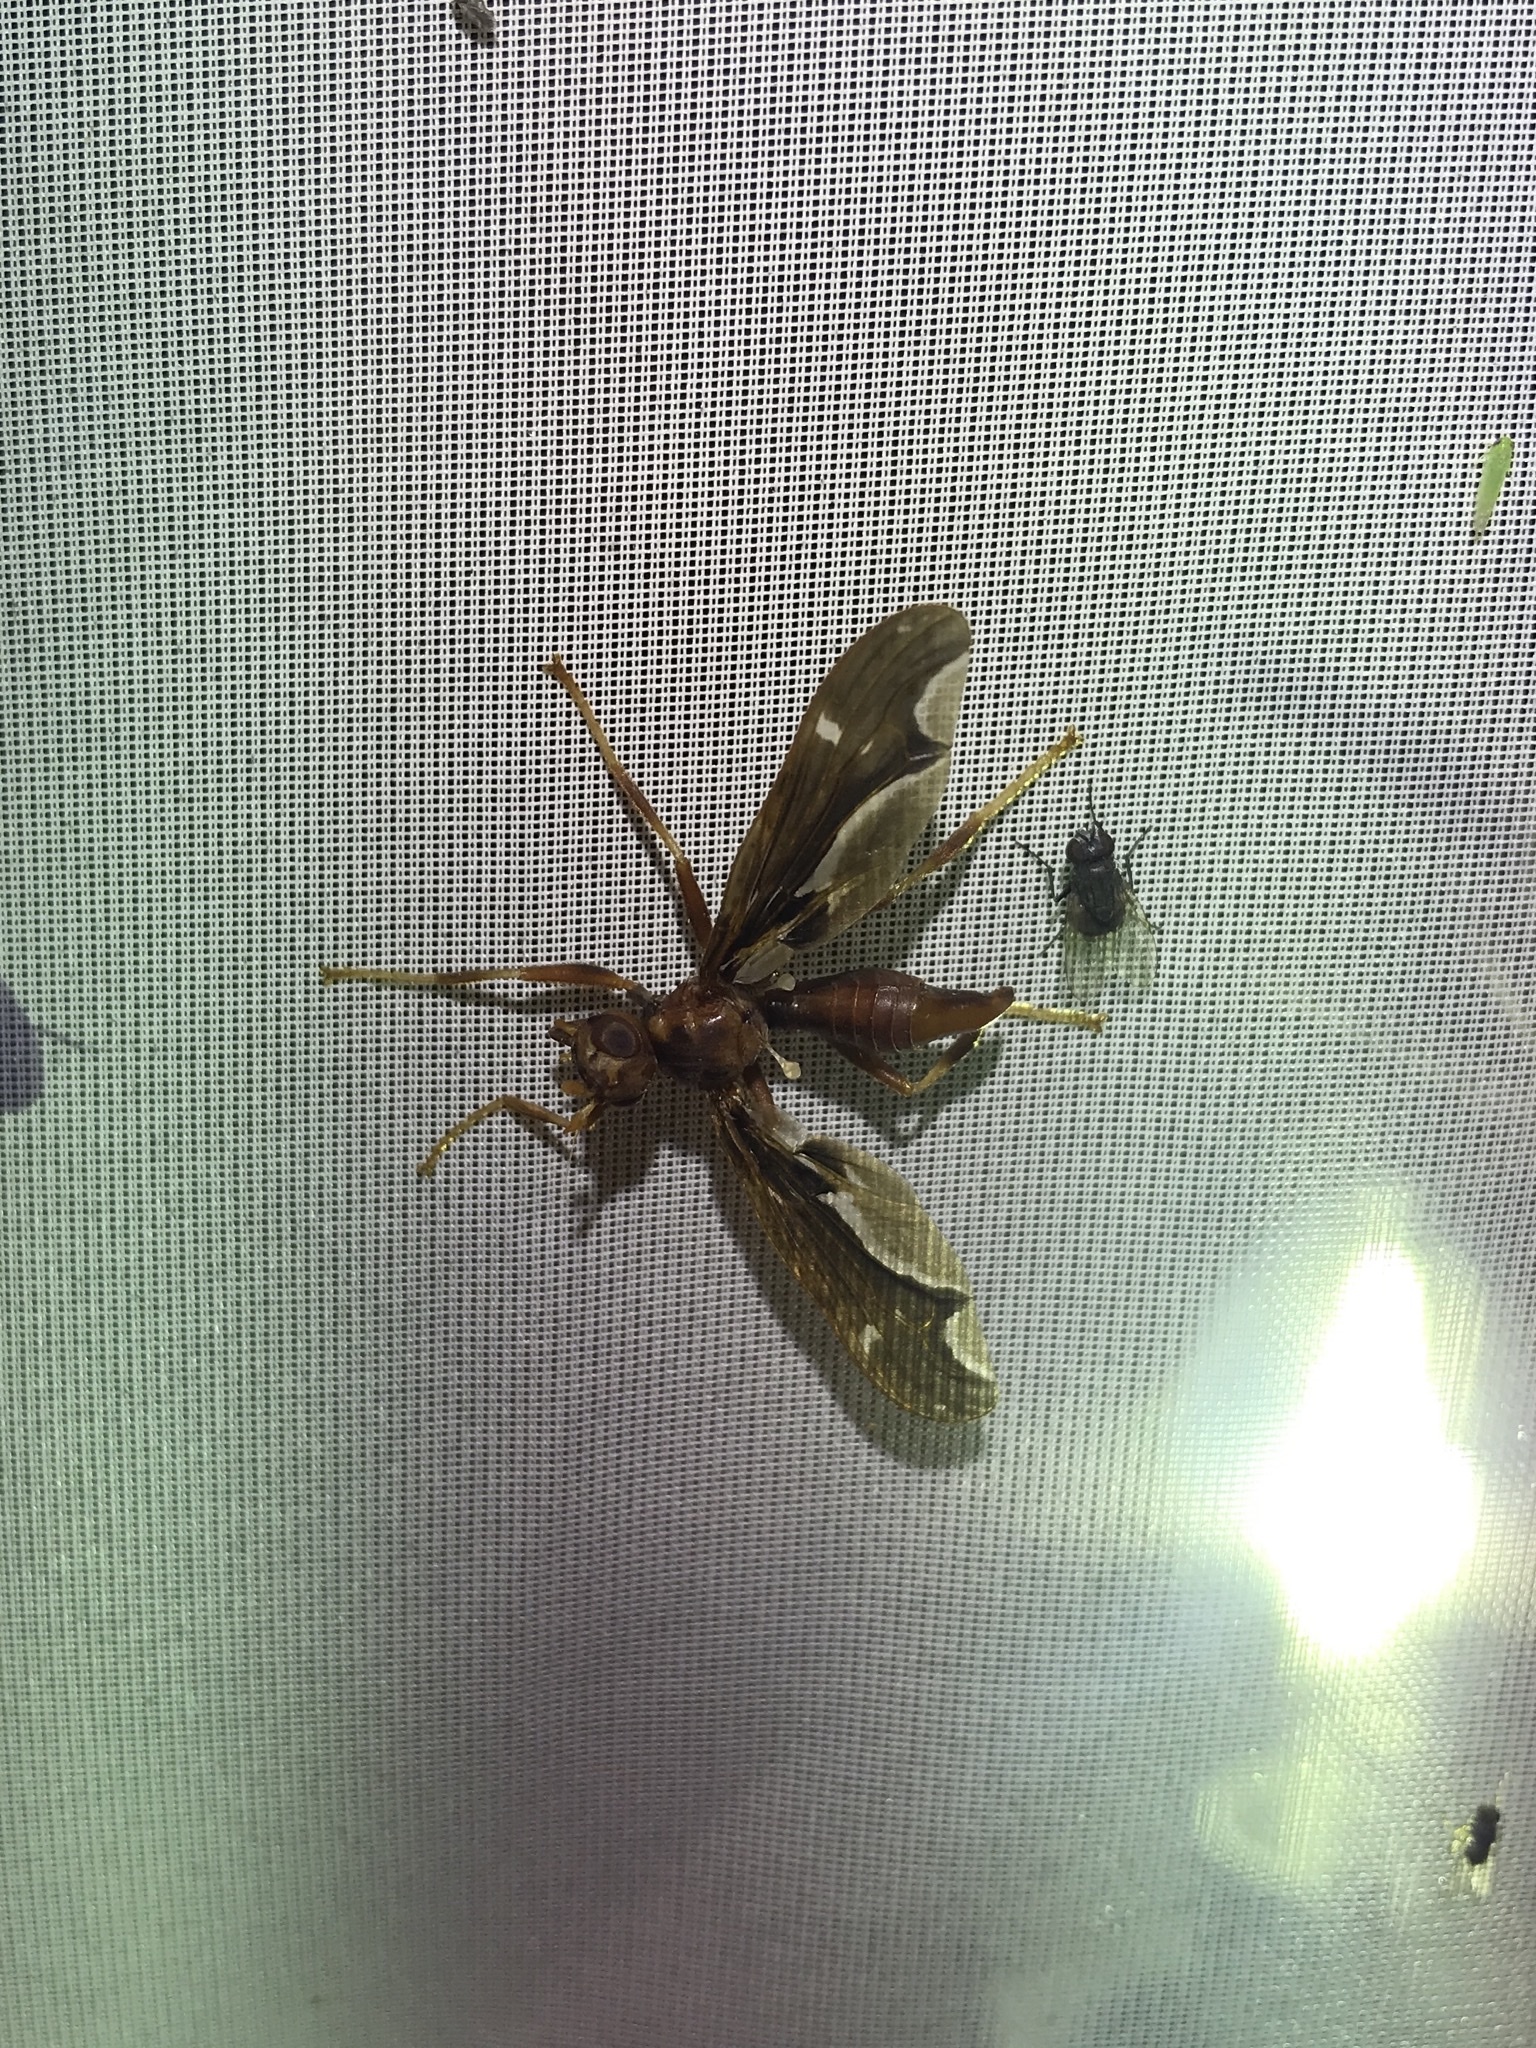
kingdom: Animalia
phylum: Arthropoda
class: Insecta
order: Diptera
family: Pyrgotidae
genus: Pyrgota
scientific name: Pyrgota undata
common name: Waved light fly
